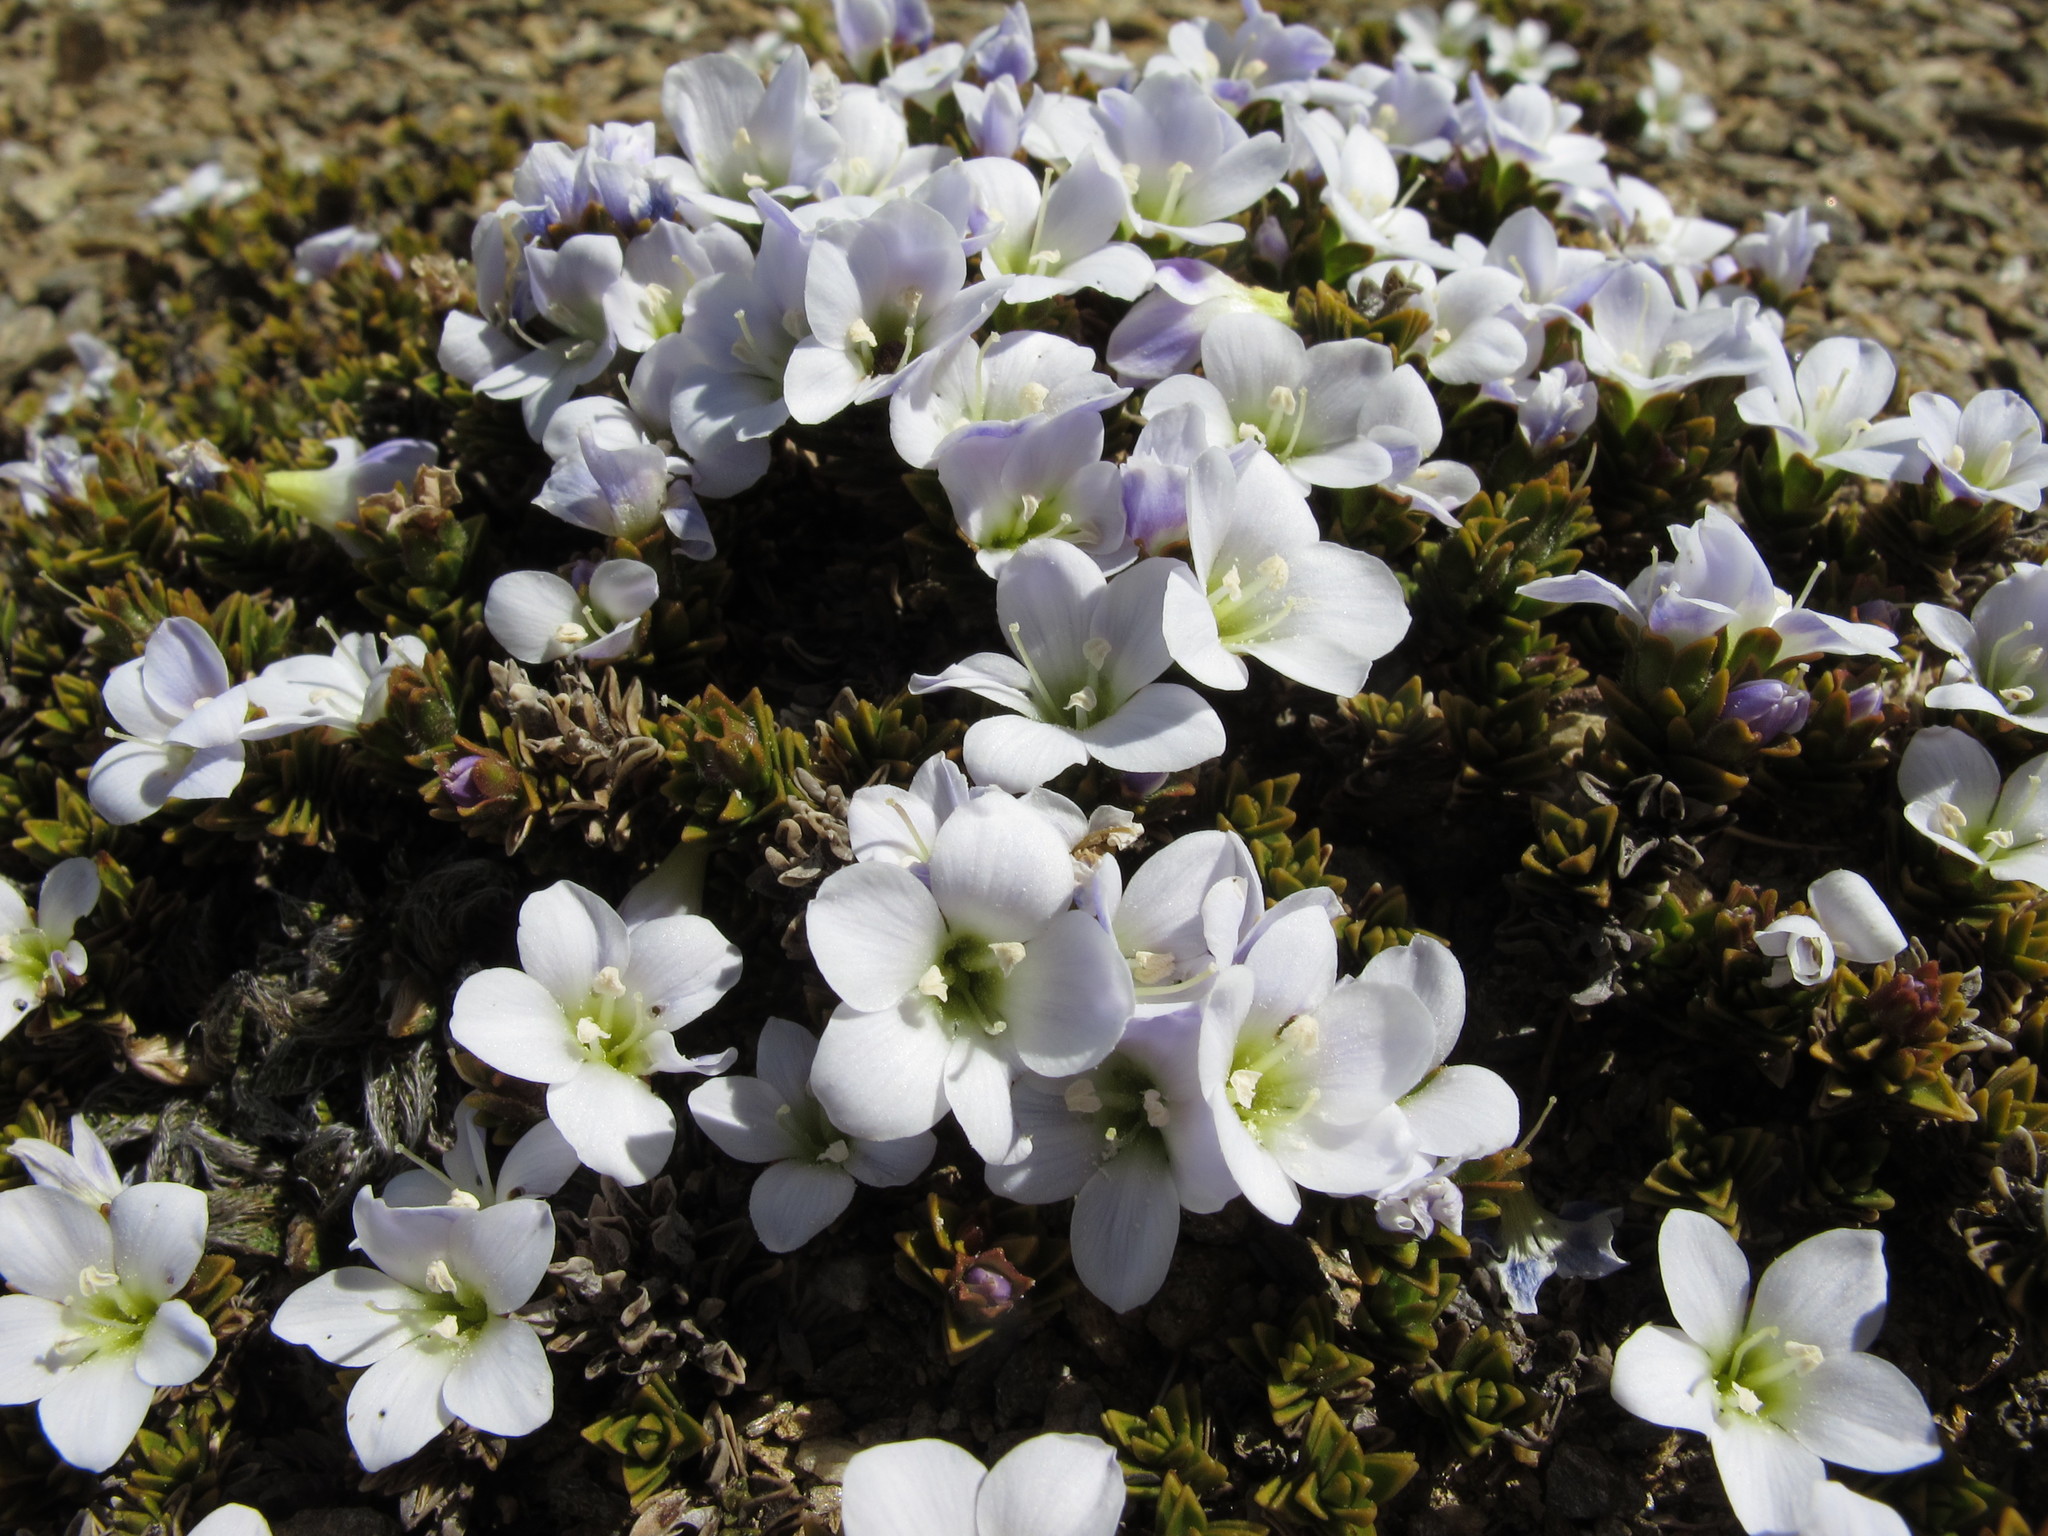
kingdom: Plantae
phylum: Tracheophyta
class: Magnoliopsida
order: Lamiales
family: Plantaginaceae
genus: Veronica
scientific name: Veronica densifolia
